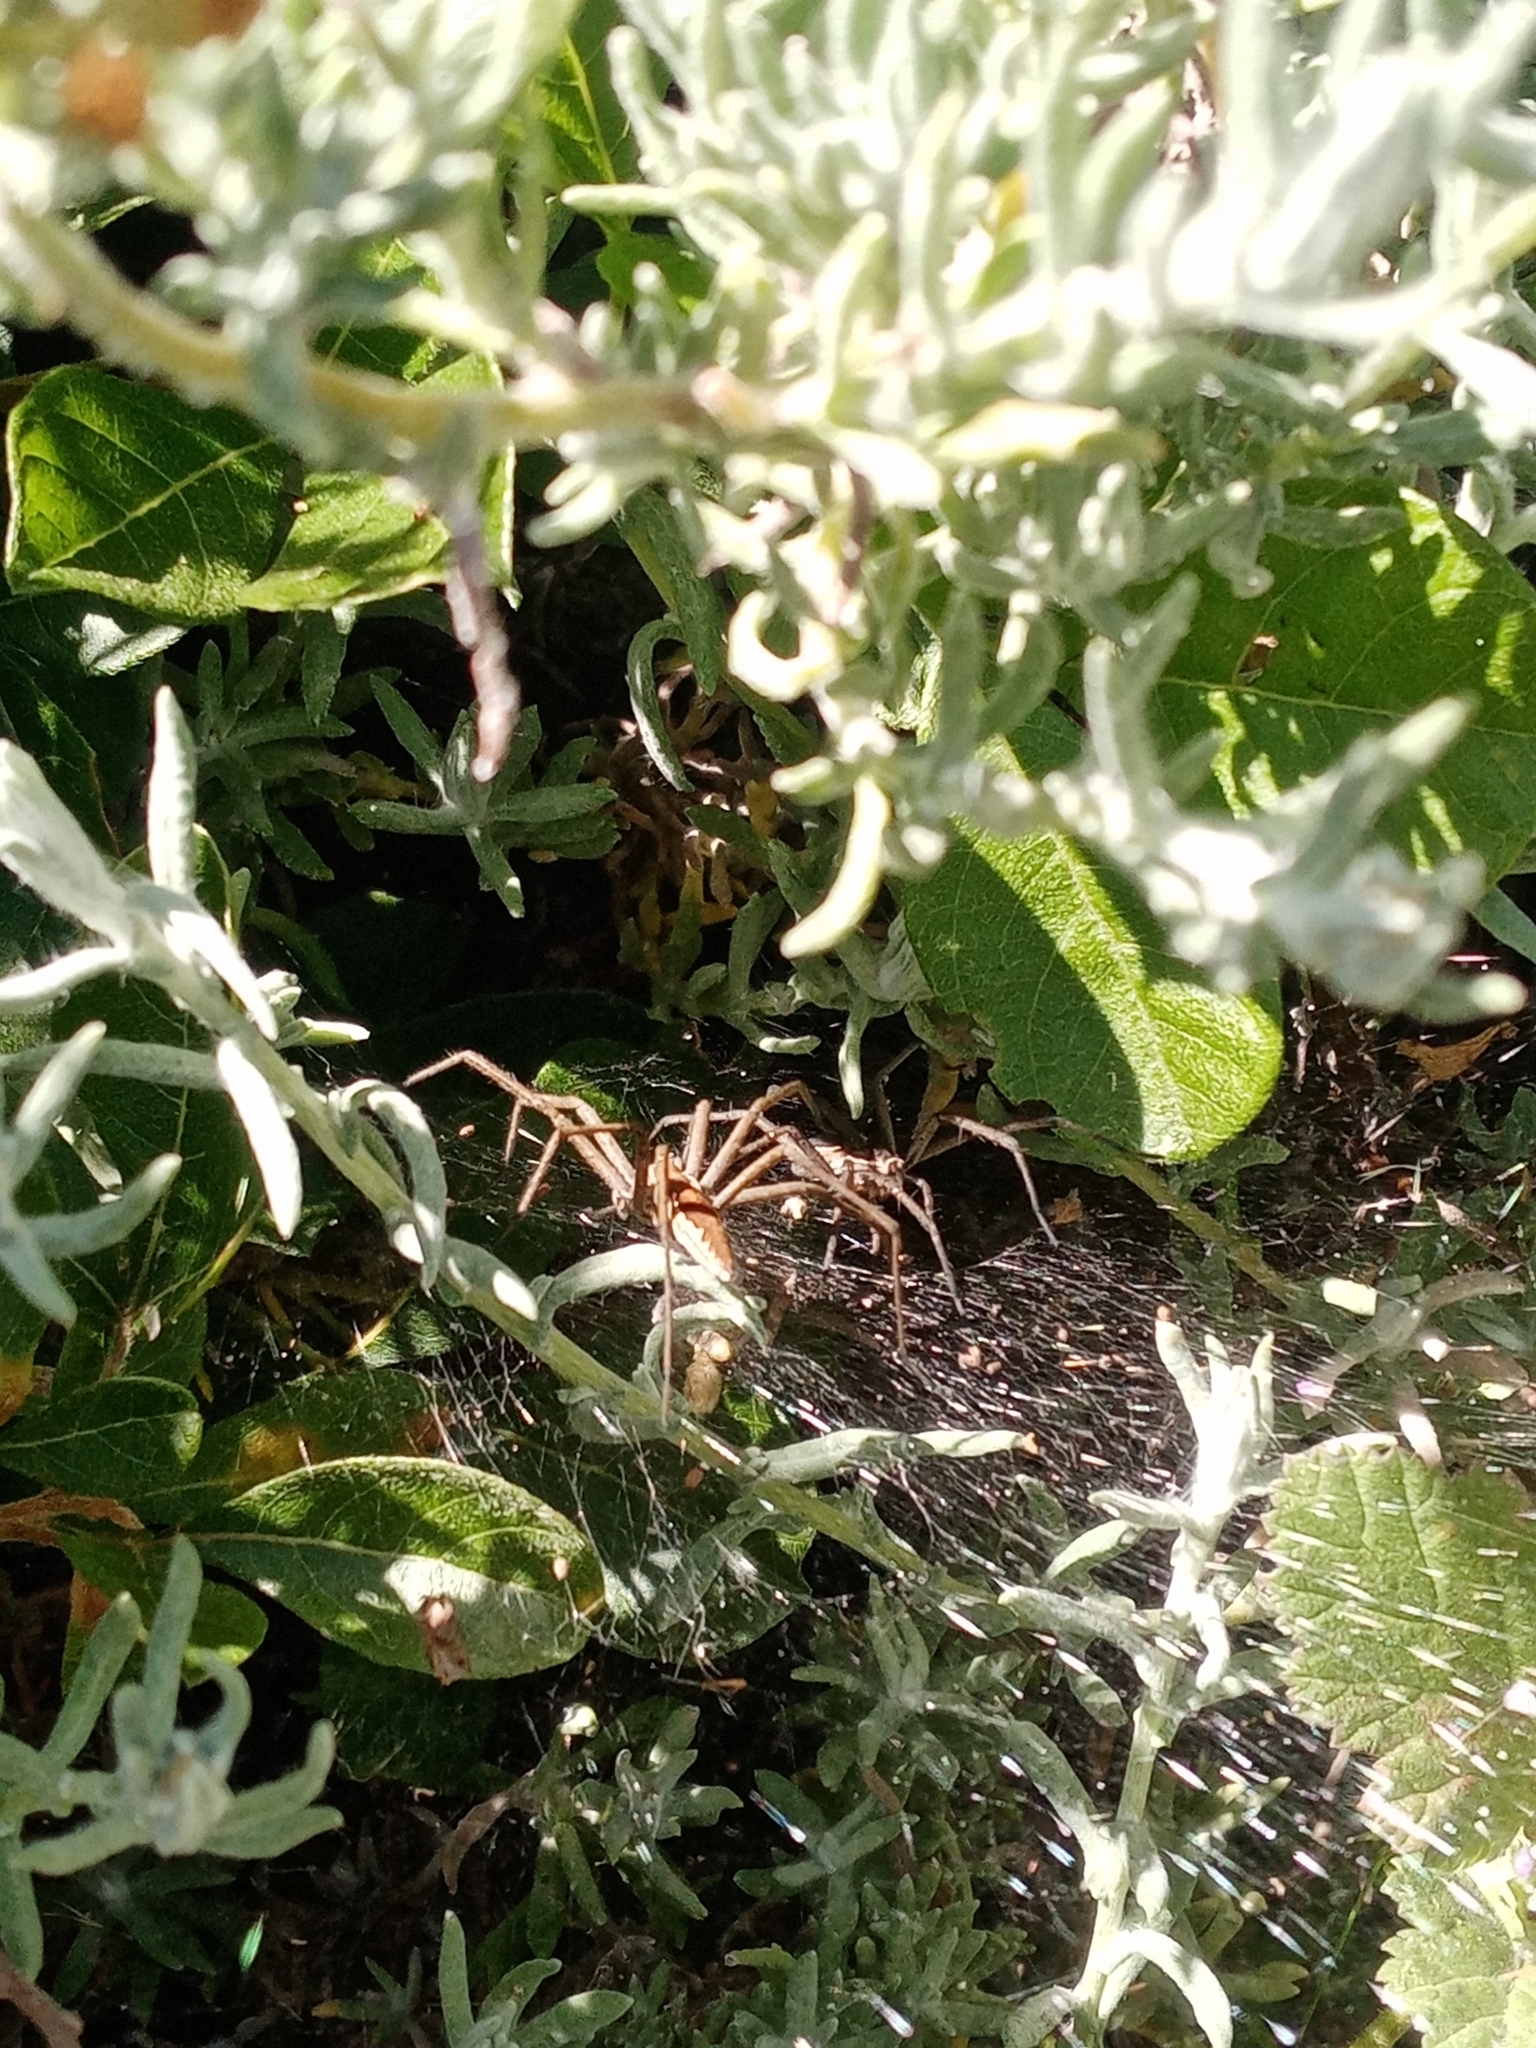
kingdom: Animalia
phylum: Arthropoda
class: Arachnida
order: Araneae
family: Pisauridae
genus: Euprosthenopsis
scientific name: Euprosthenopsis pulchella
